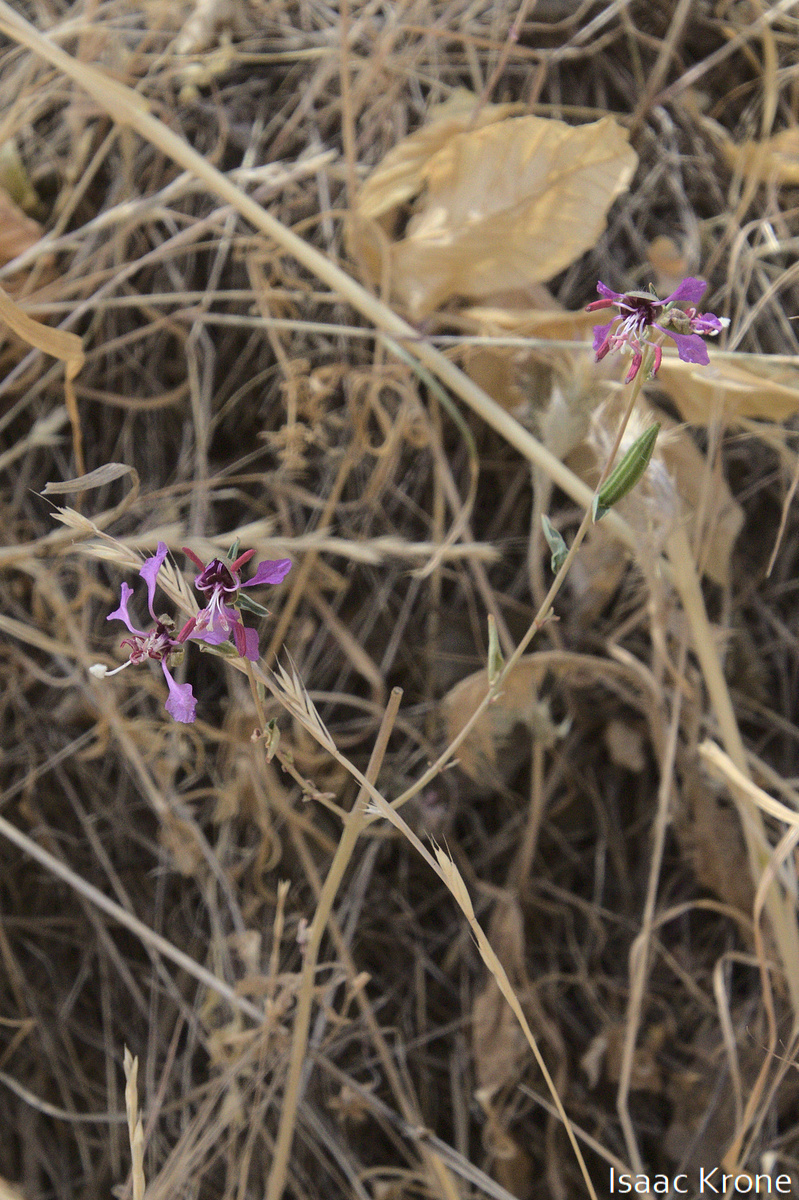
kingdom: Plantae
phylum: Tracheophyta
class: Magnoliopsida
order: Myrtales
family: Onagraceae
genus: Clarkia
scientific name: Clarkia unguiculata
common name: Clarkia
